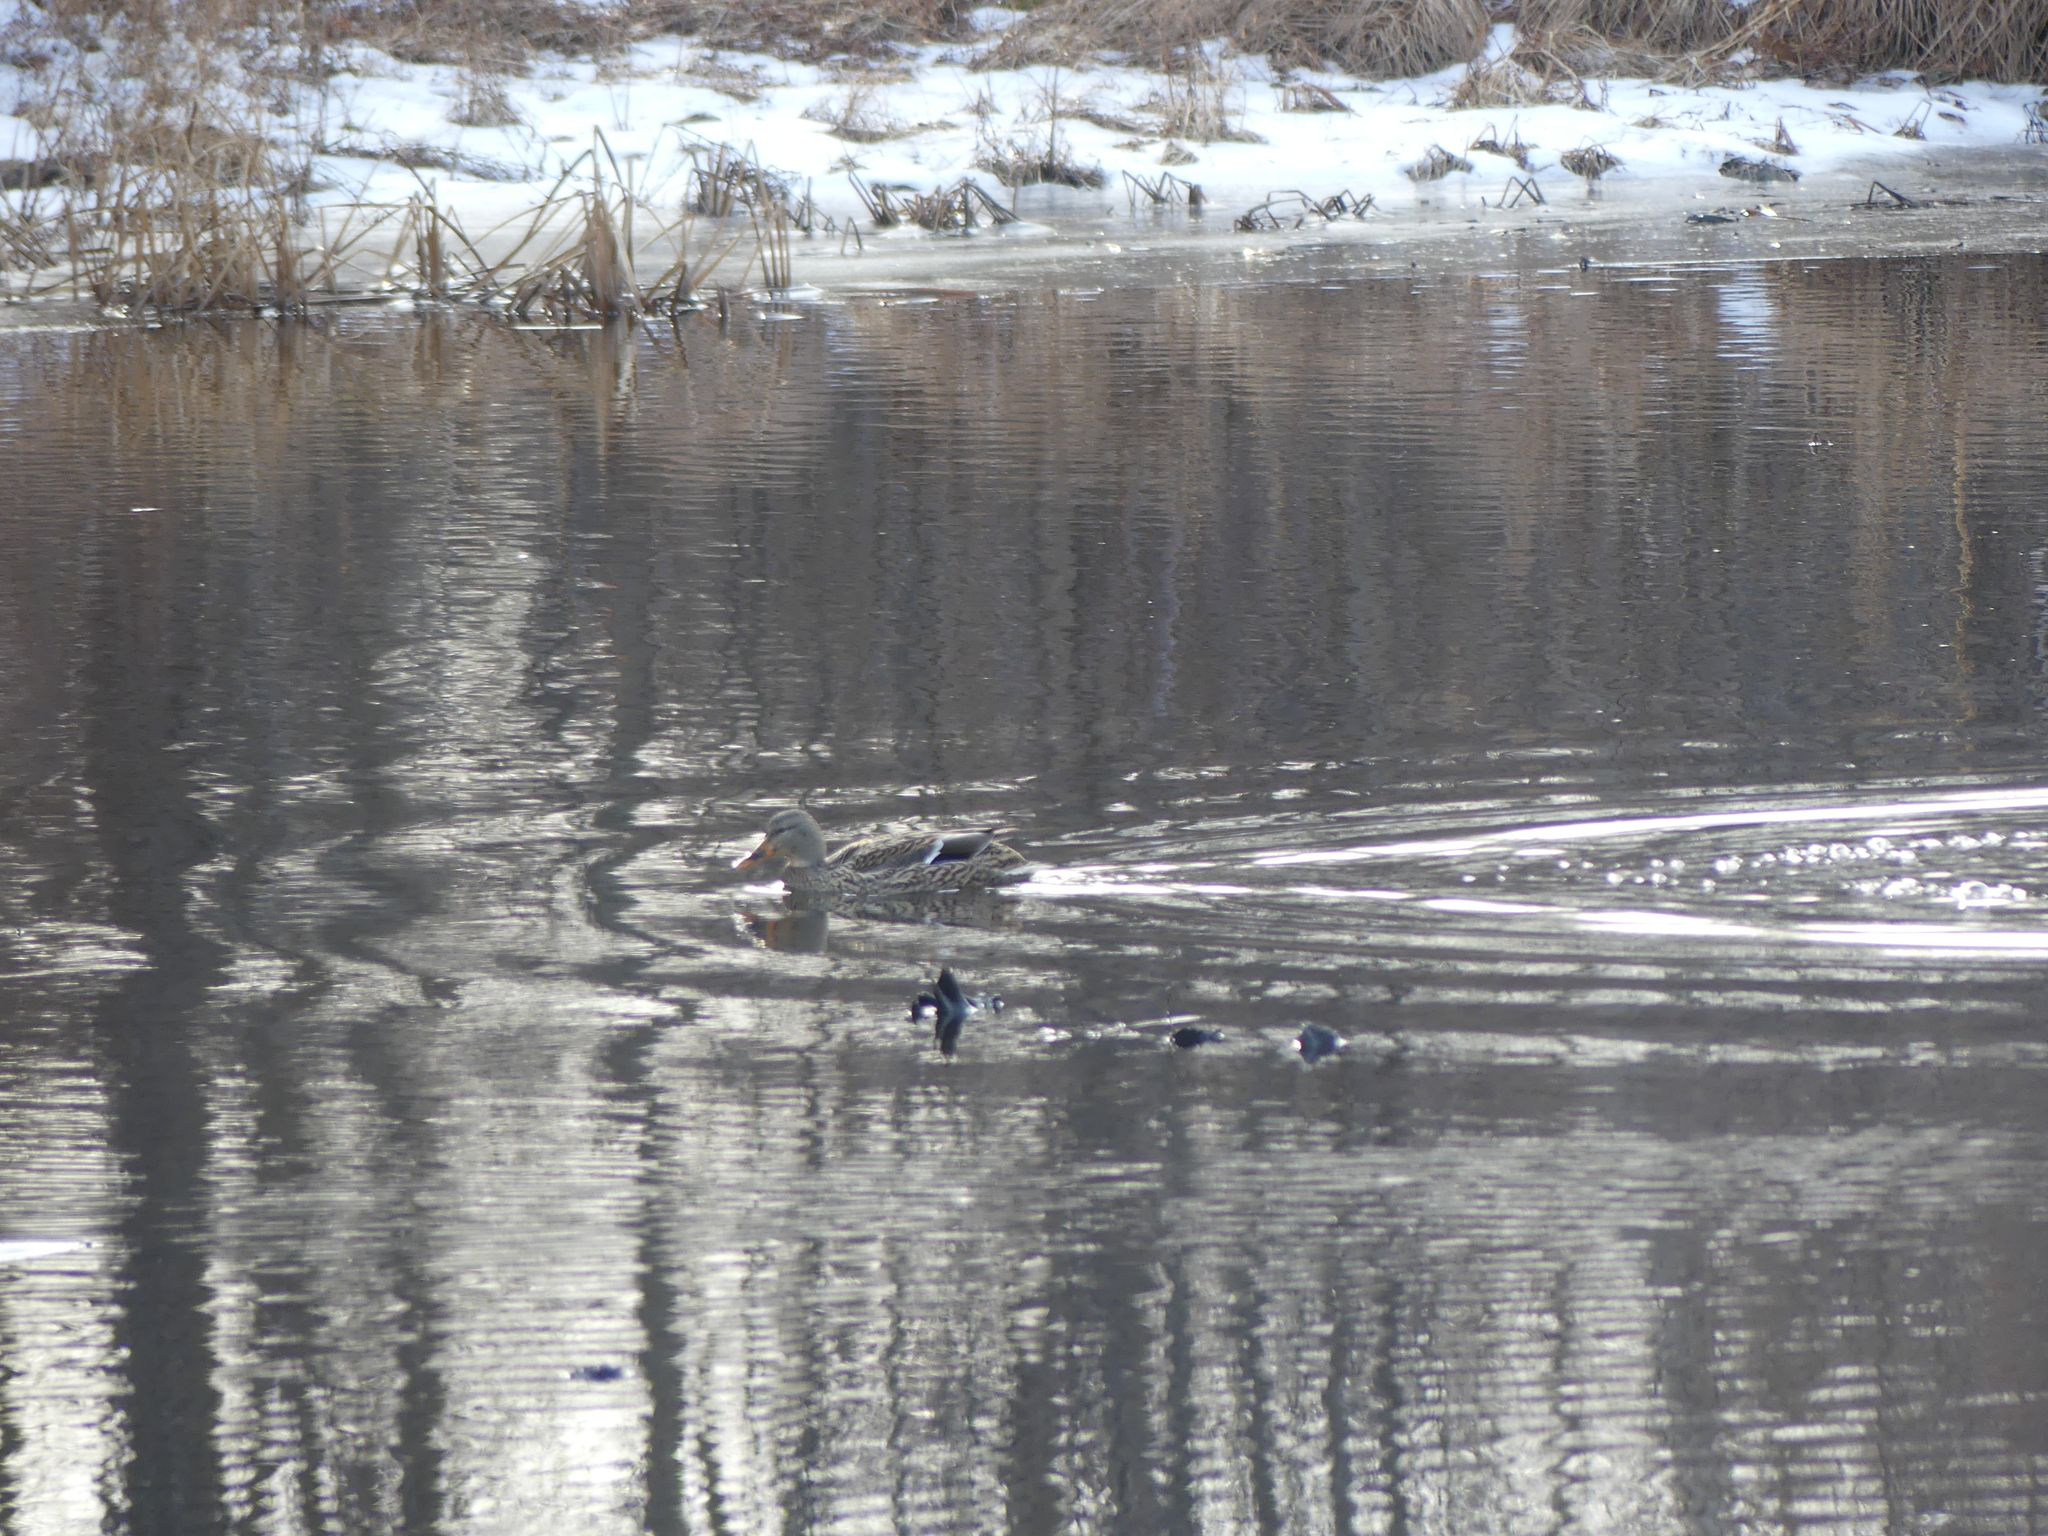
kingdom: Animalia
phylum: Chordata
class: Aves
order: Anseriformes
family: Anatidae
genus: Anas
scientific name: Anas platyrhynchos
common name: Mallard
